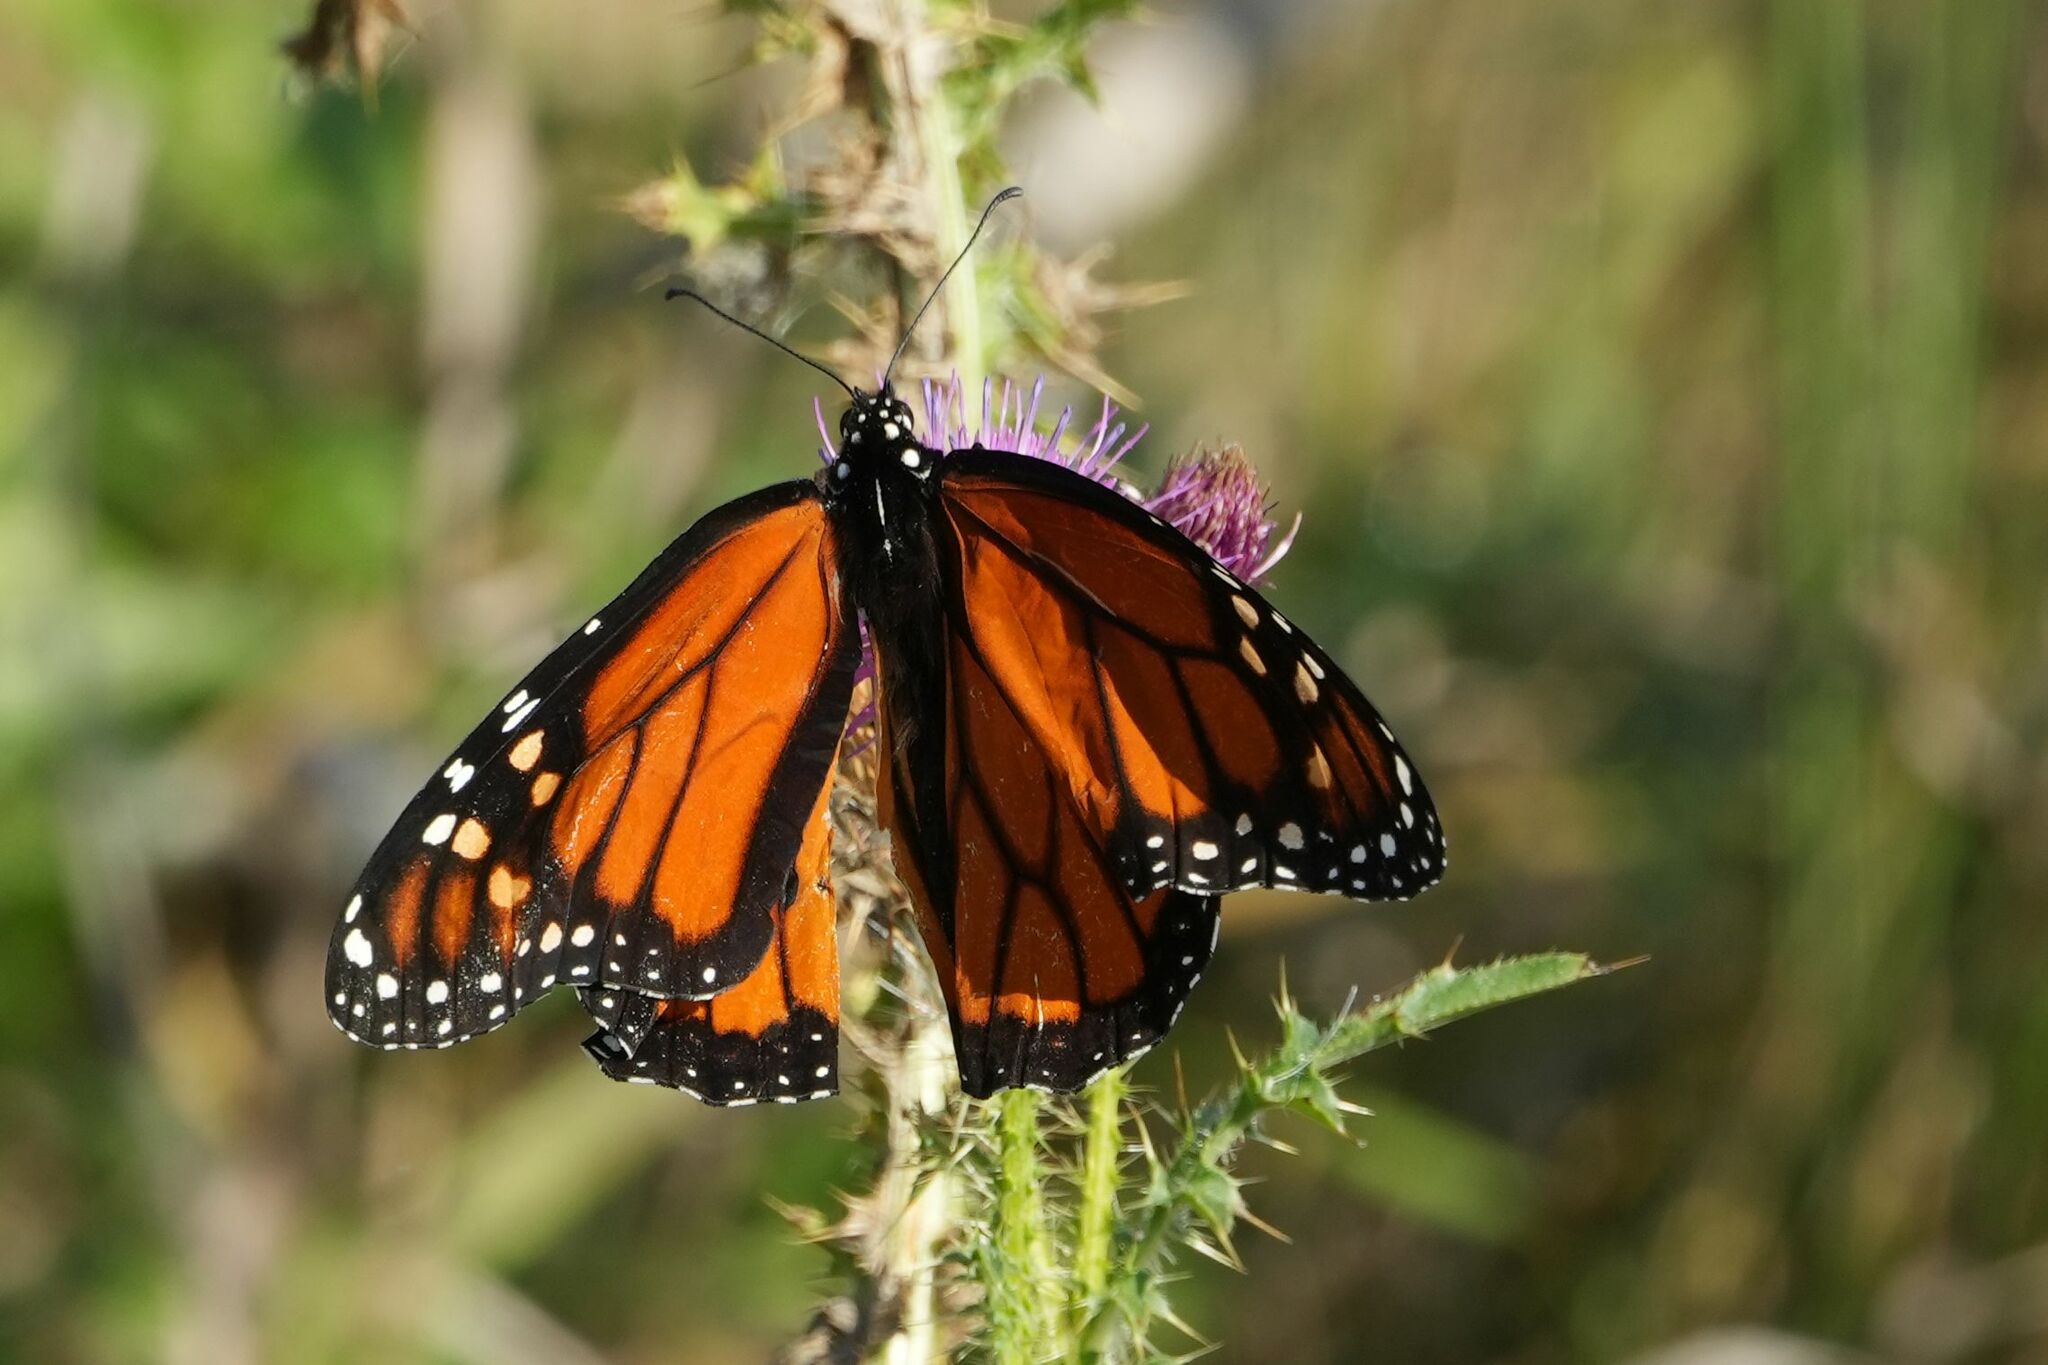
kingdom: Animalia
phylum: Arthropoda
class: Insecta
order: Lepidoptera
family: Nymphalidae
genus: Danaus
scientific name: Danaus plexippus
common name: Monarch
